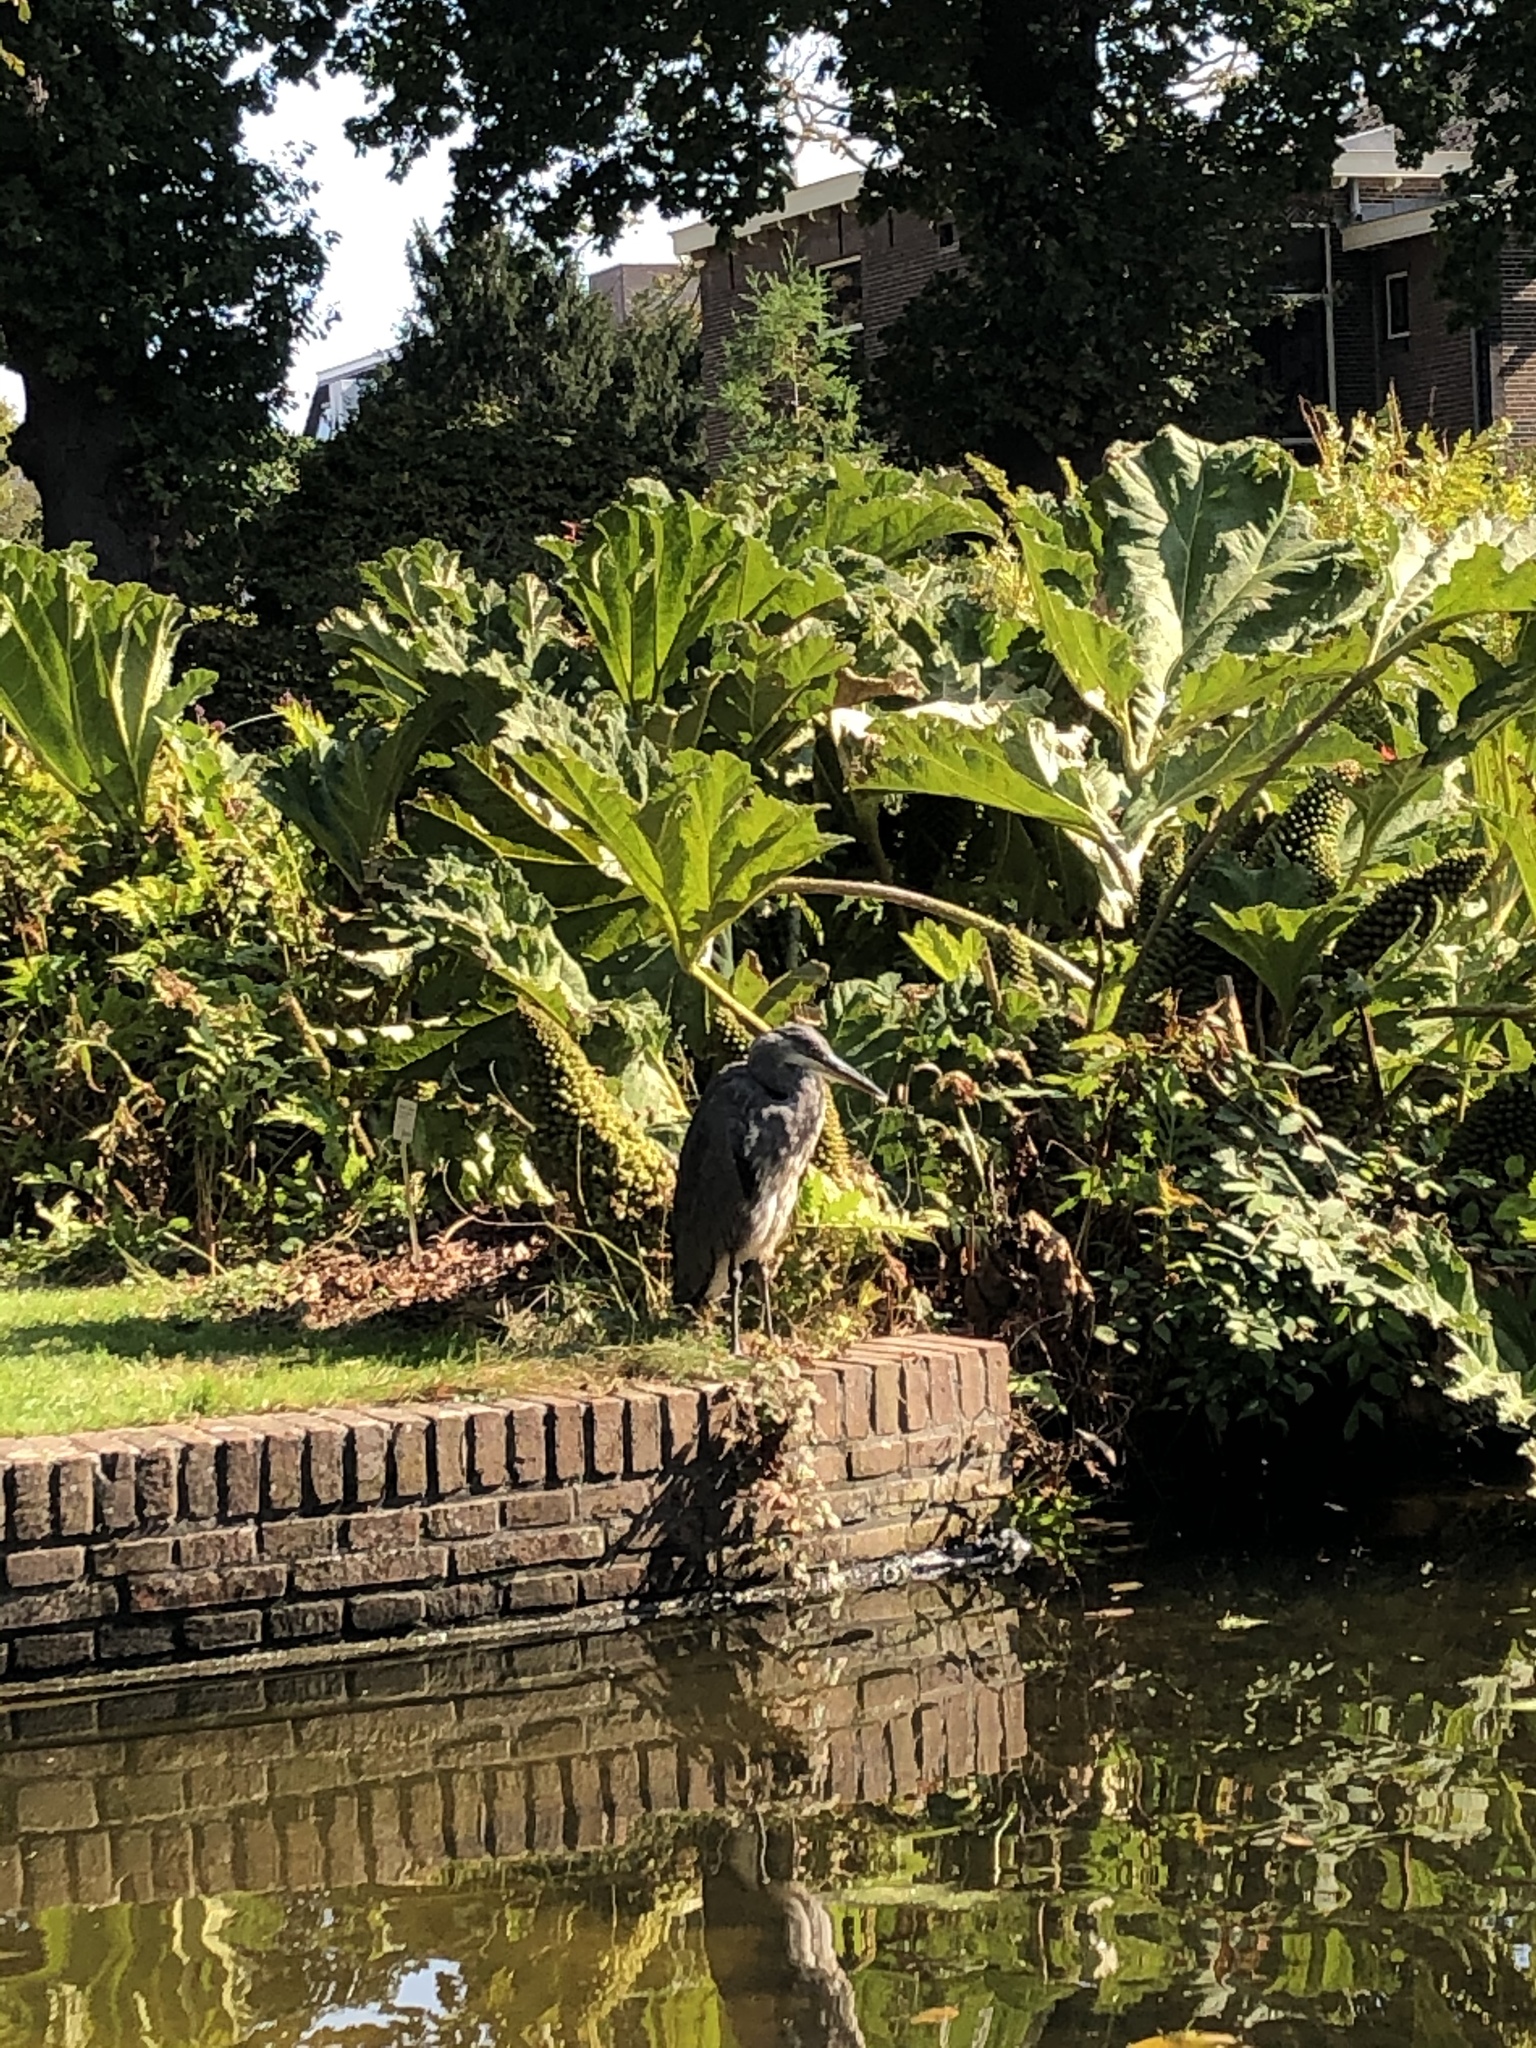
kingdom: Animalia
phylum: Chordata
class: Aves
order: Pelecaniformes
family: Ardeidae
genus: Ardea
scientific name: Ardea cinerea
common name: Grey heron
